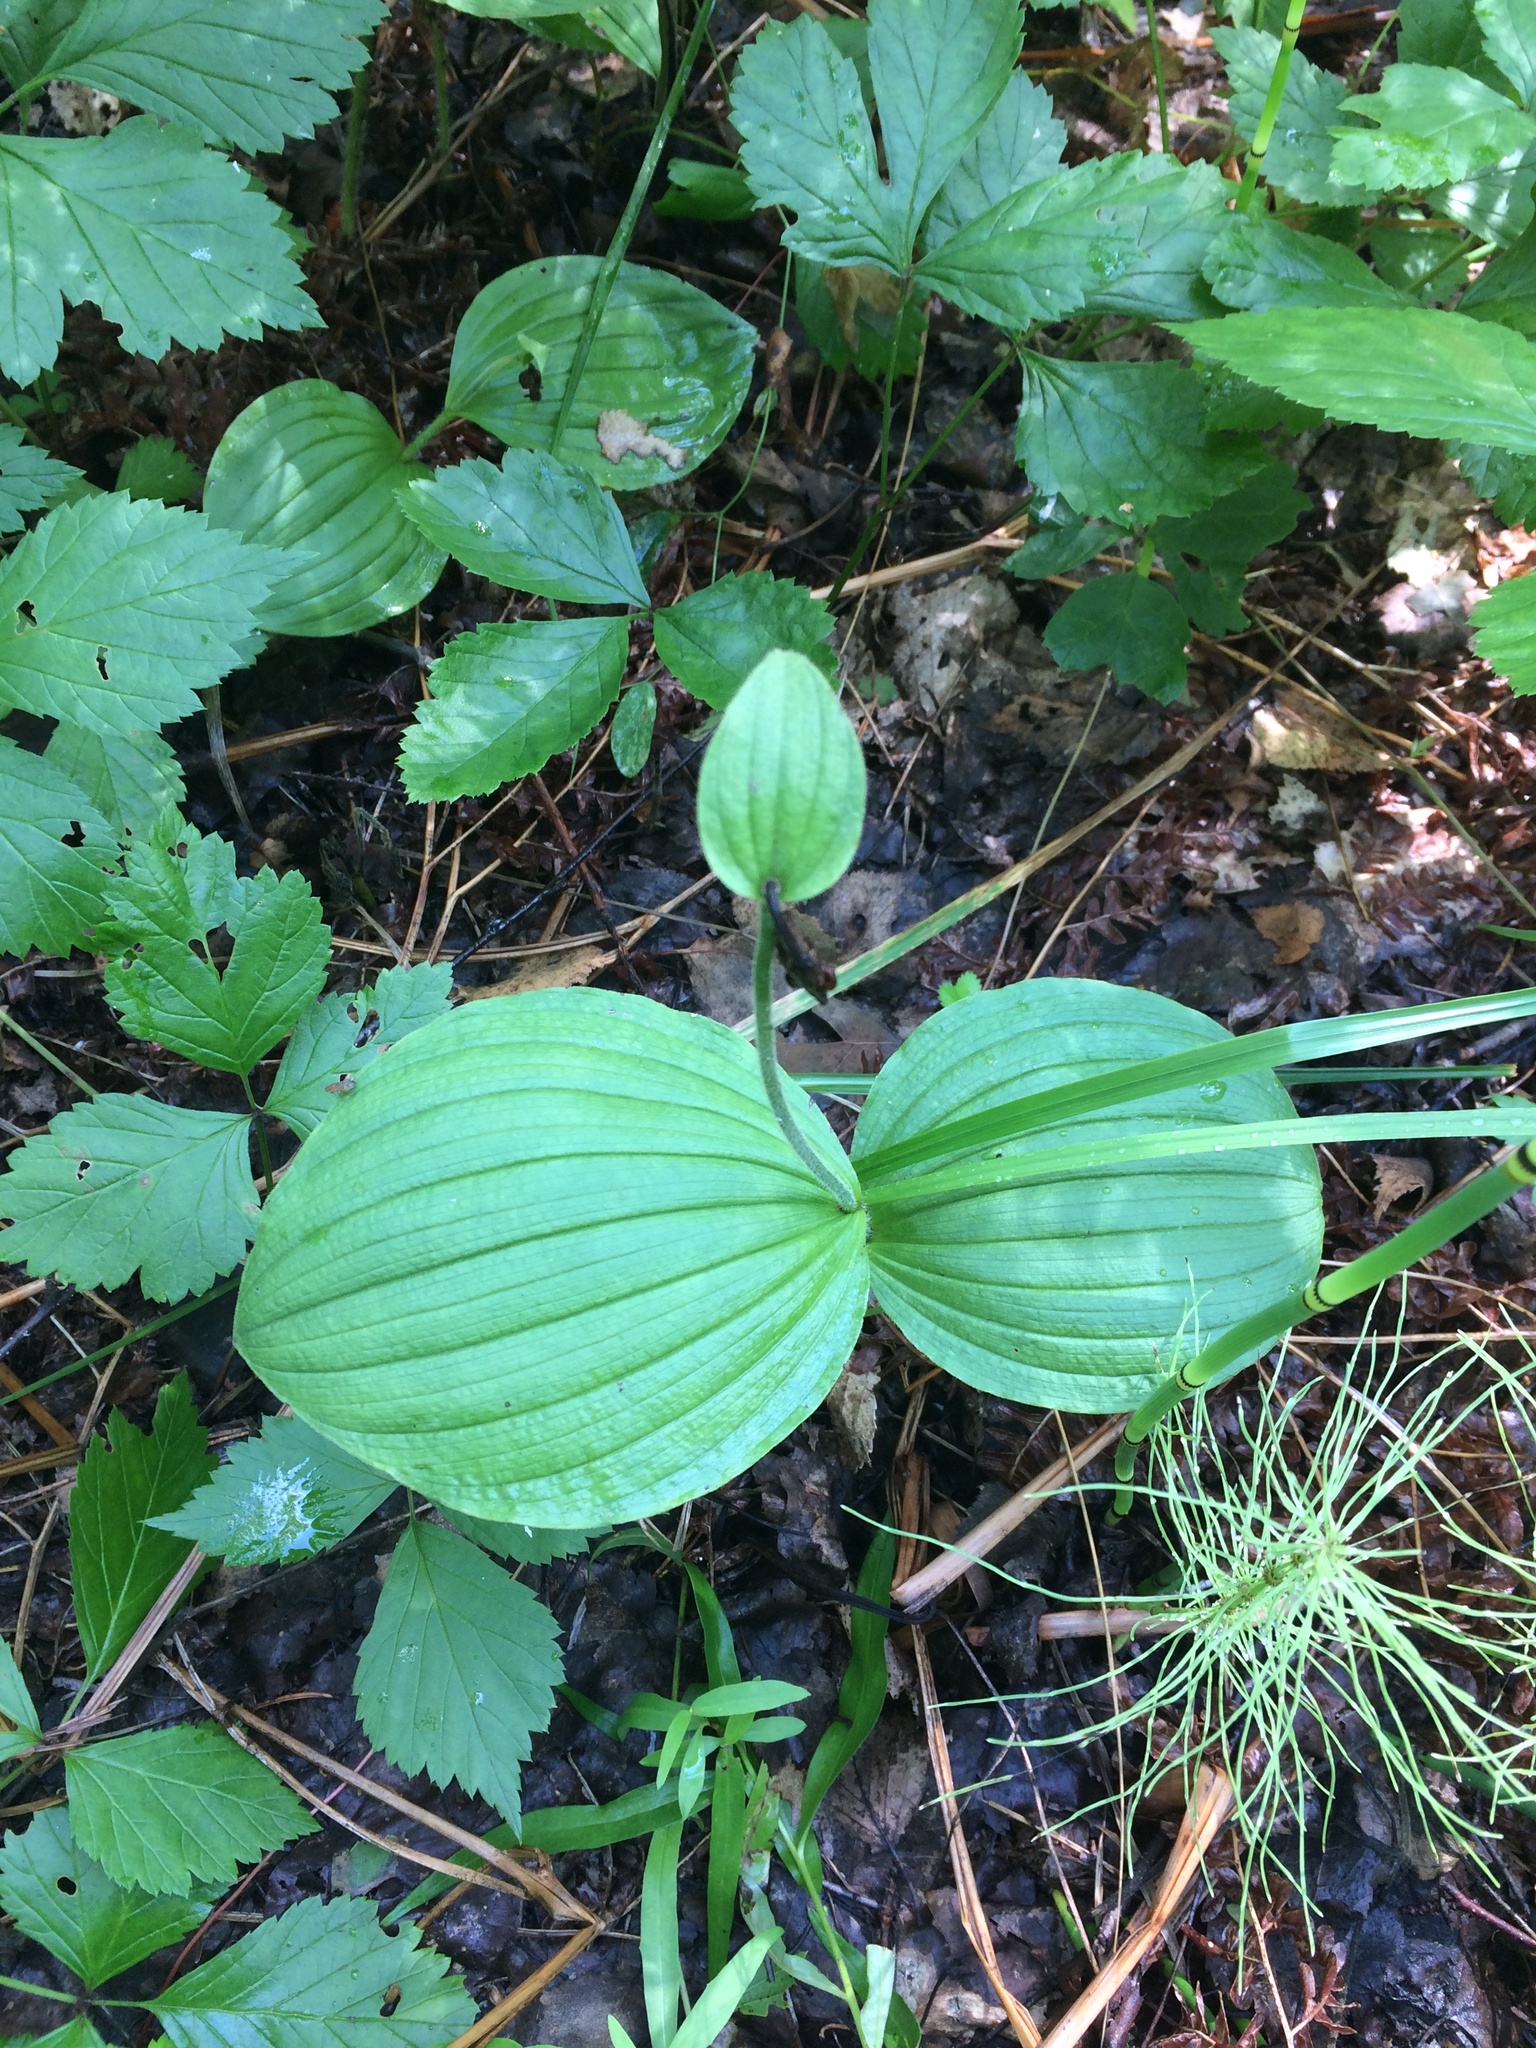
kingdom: Plantae
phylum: Tracheophyta
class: Liliopsida
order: Asparagales
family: Orchidaceae
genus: Cypripedium
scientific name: Cypripedium guttatum
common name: Pink lady slipper
